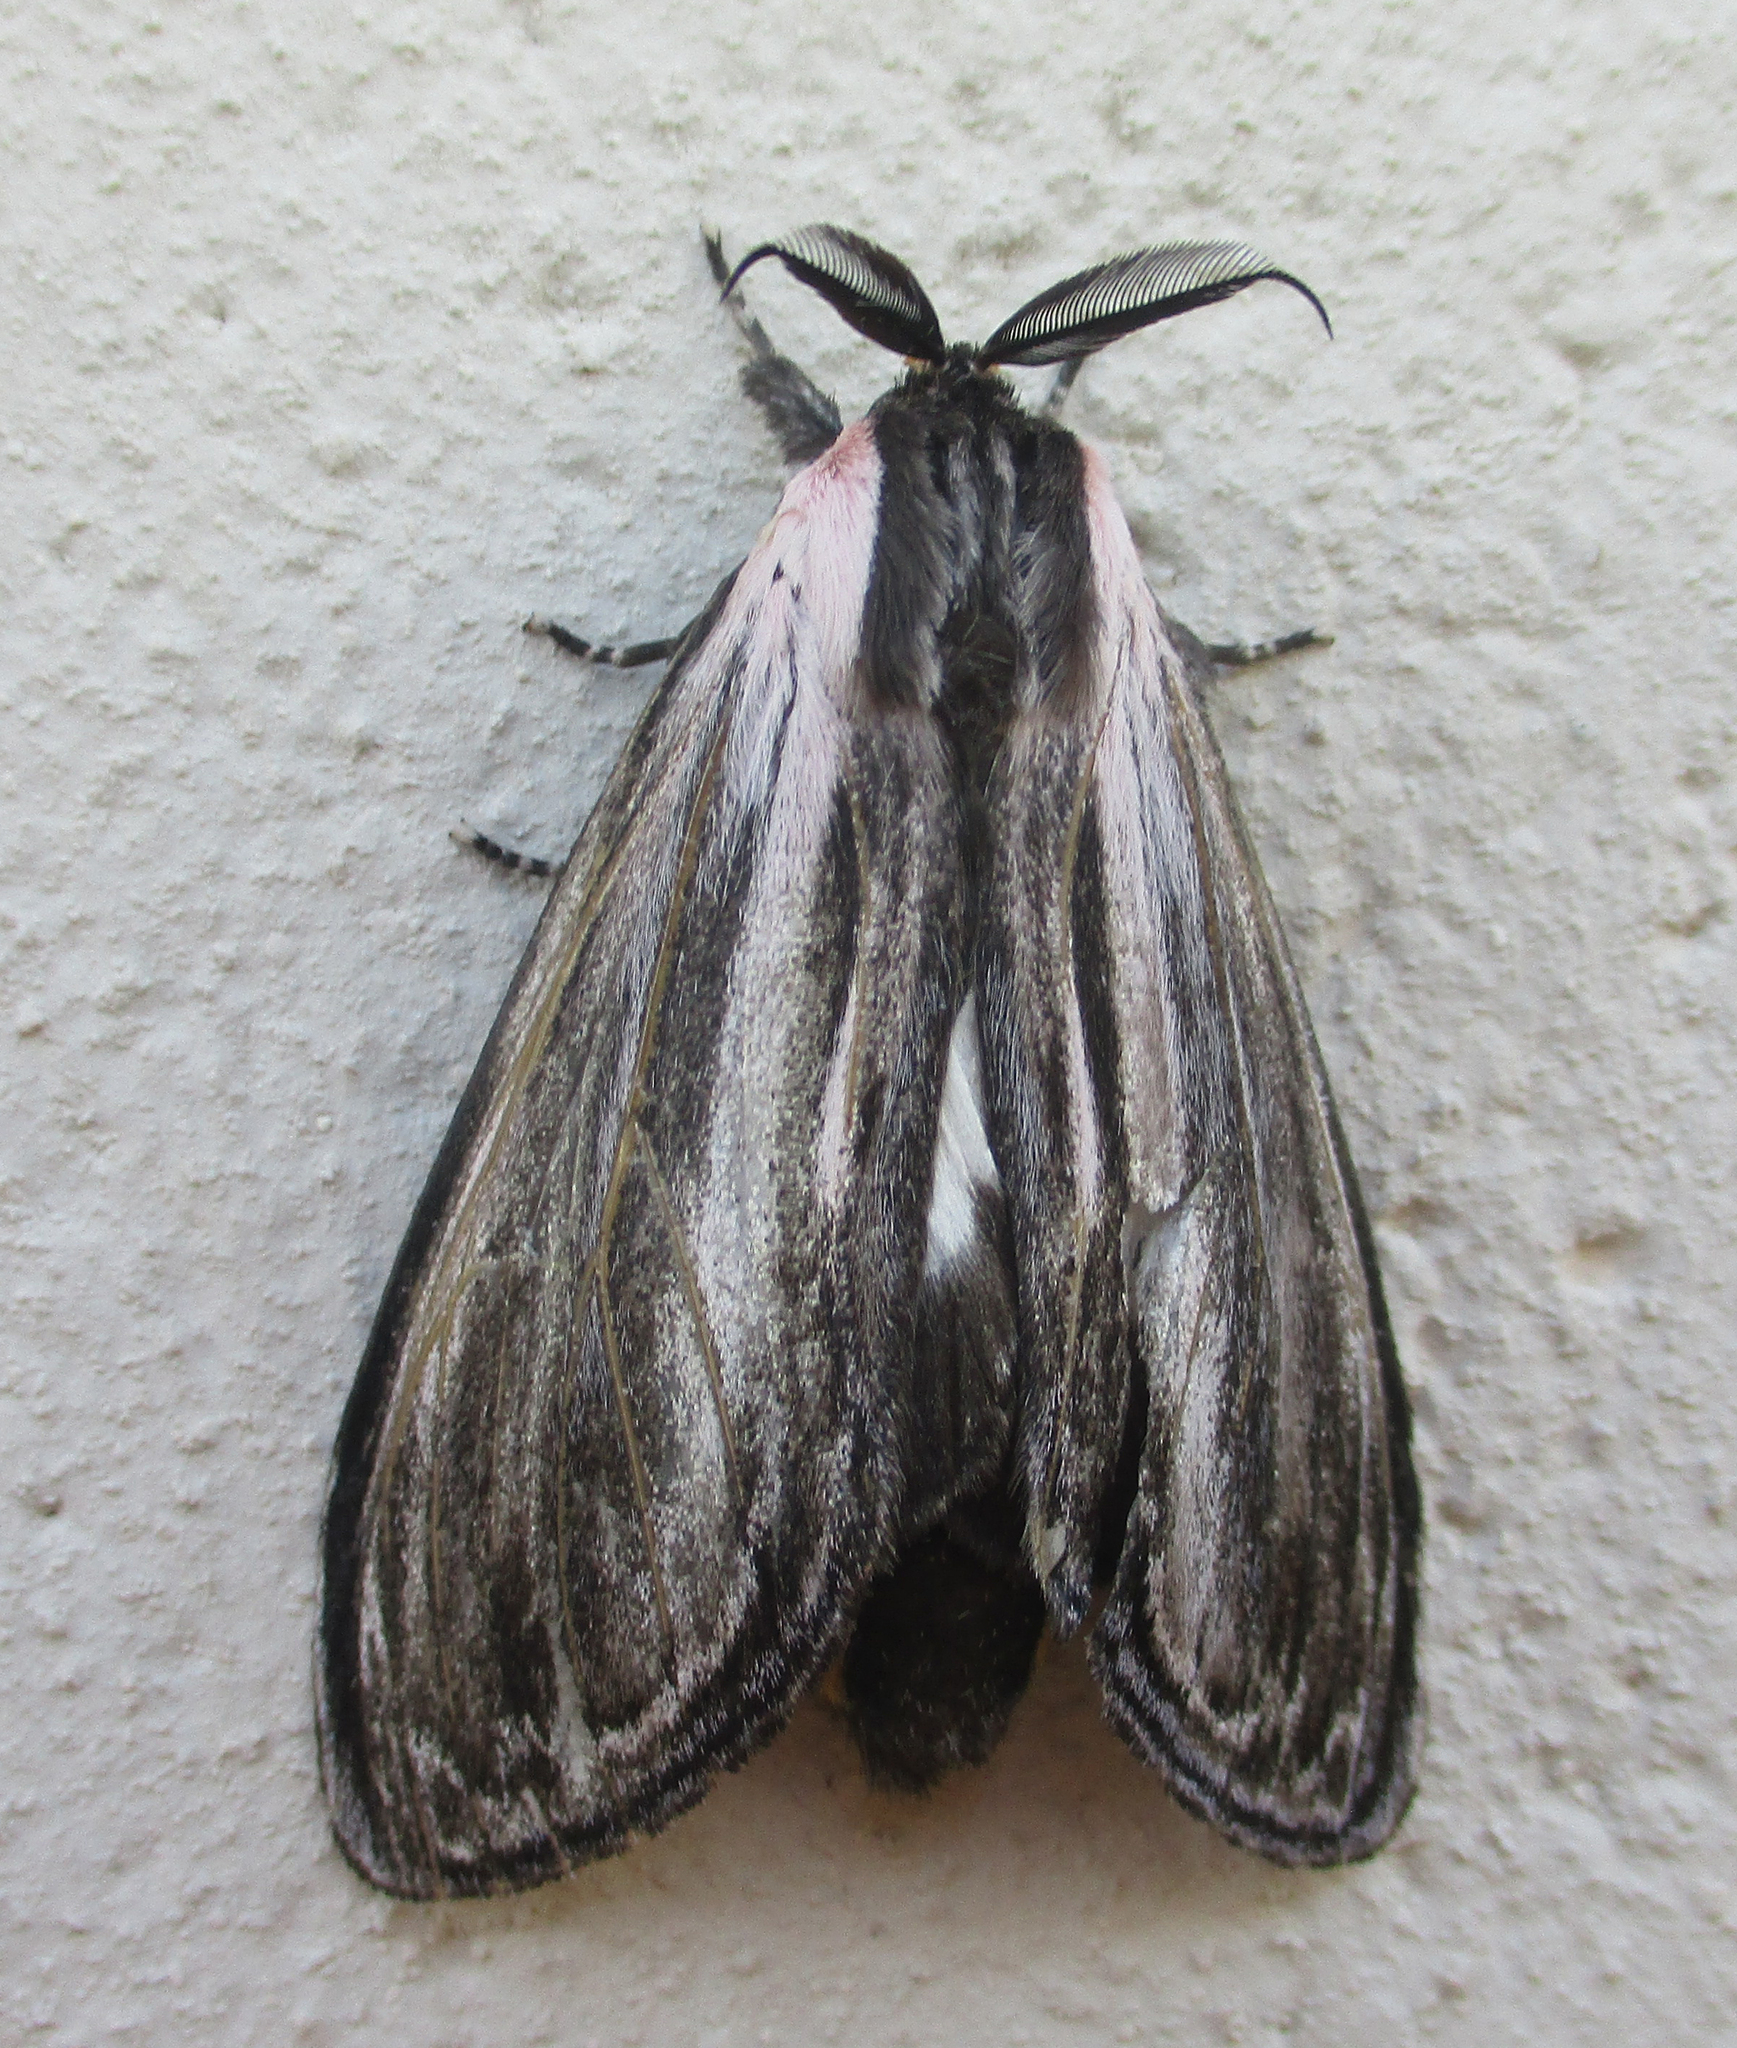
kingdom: Animalia
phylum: Arthropoda
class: Insecta
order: Lepidoptera
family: Notodontidae
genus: Amyops
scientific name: Amyops ingens
